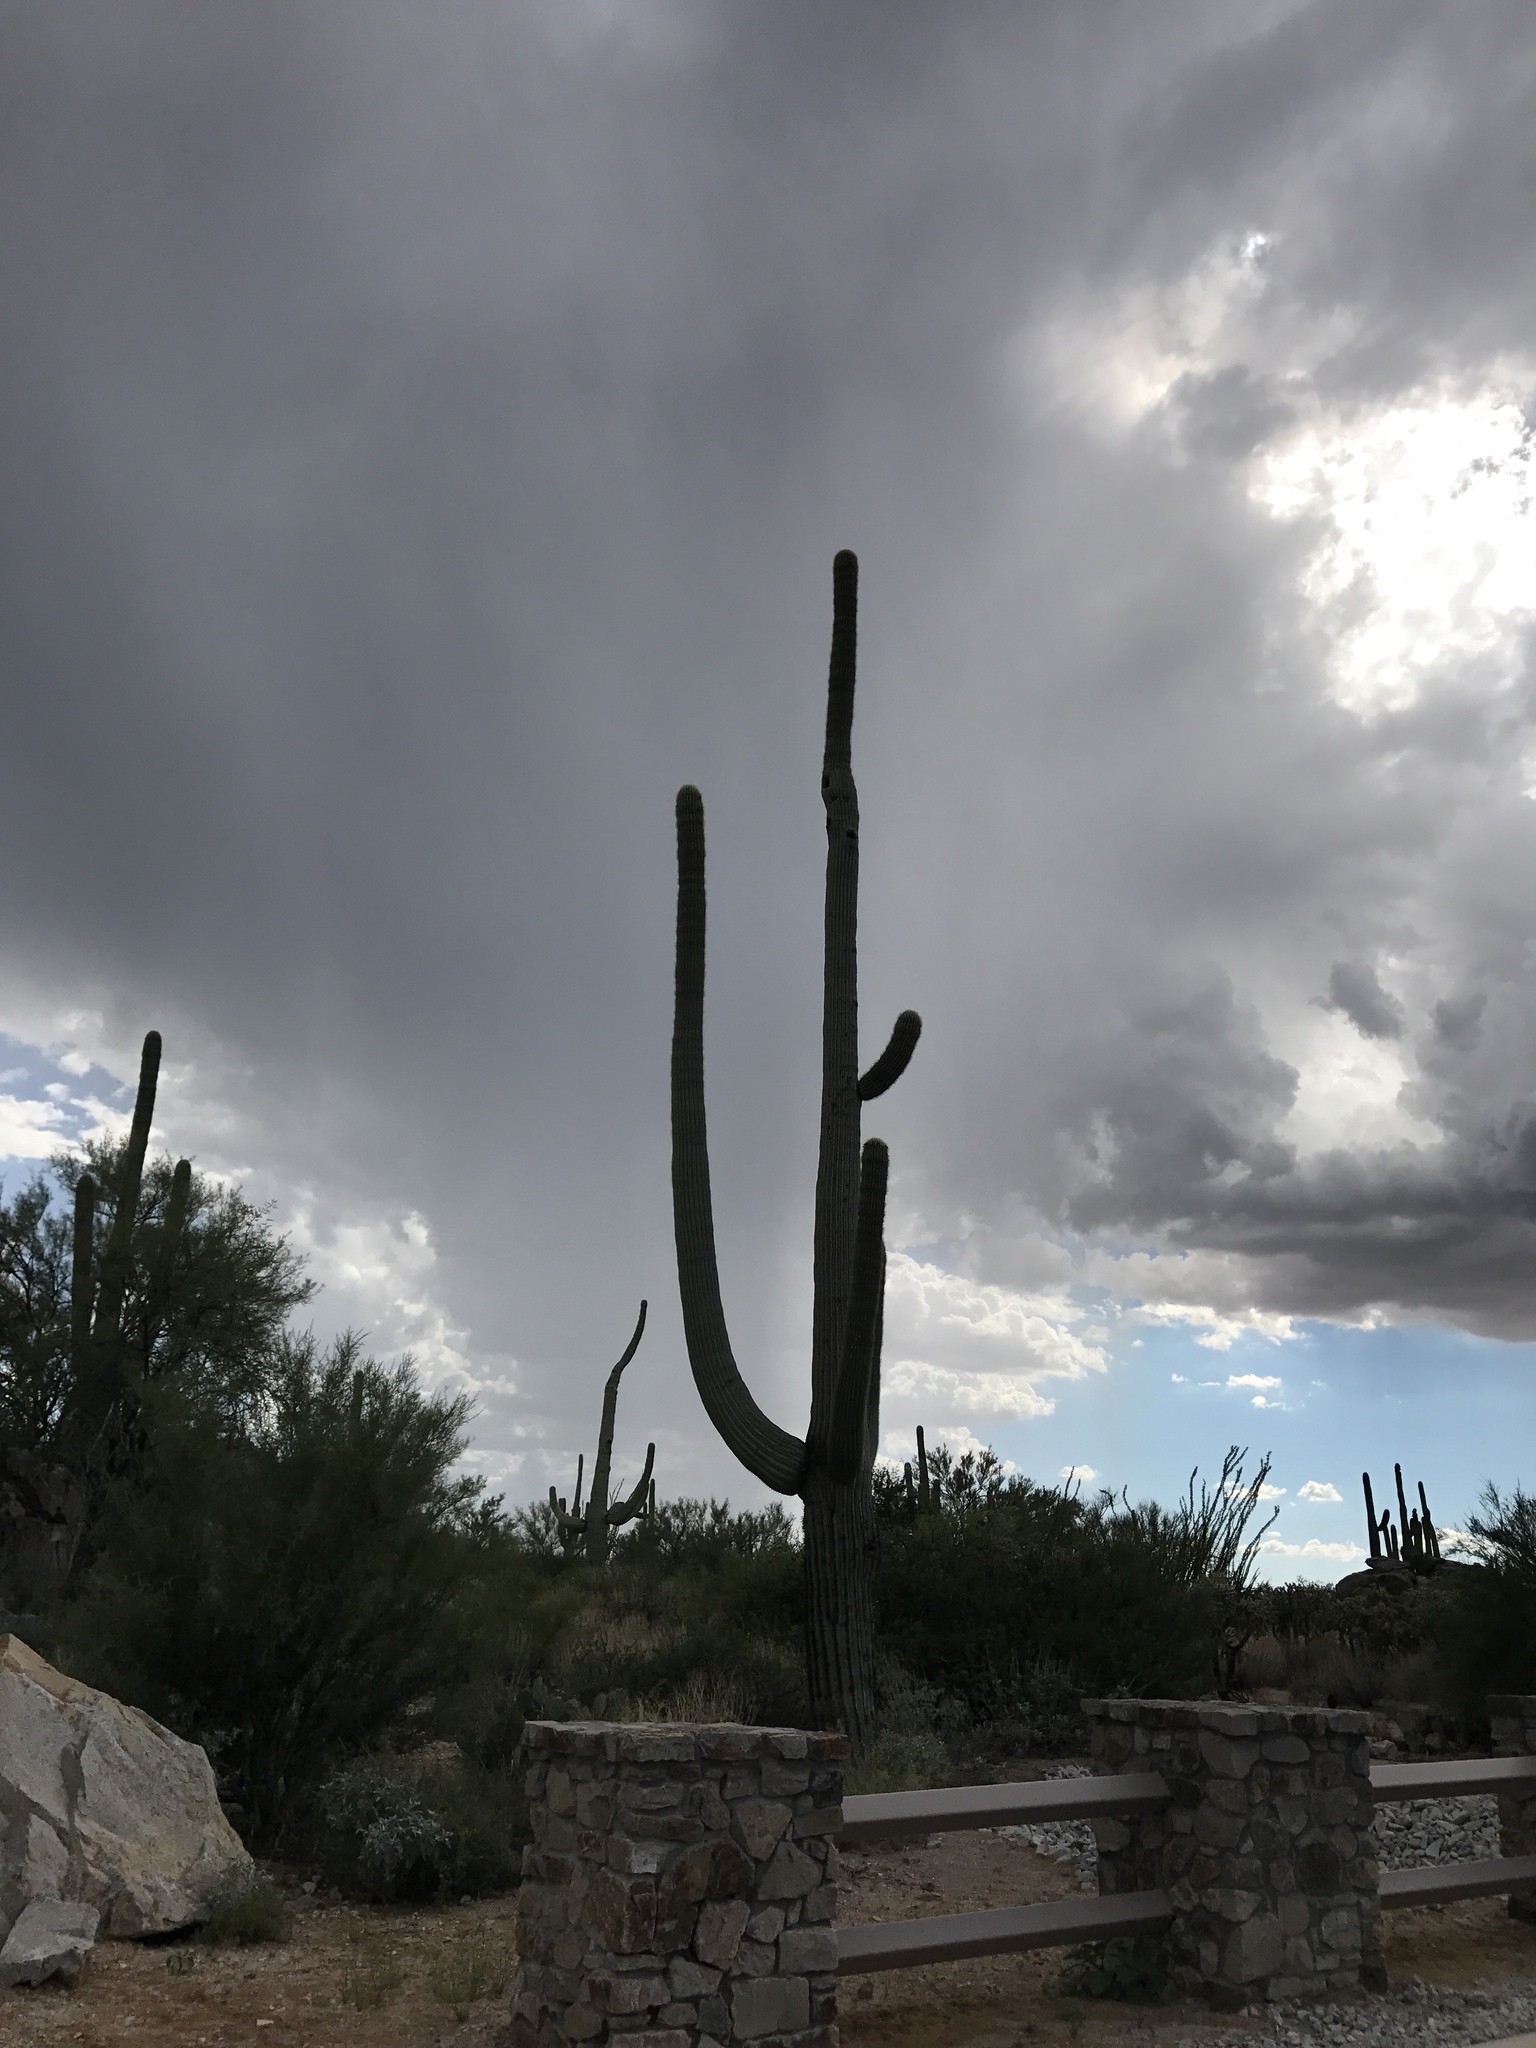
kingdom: Plantae
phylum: Tracheophyta
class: Magnoliopsida
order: Caryophyllales
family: Cactaceae
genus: Carnegiea
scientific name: Carnegiea gigantea
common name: Saguaro
